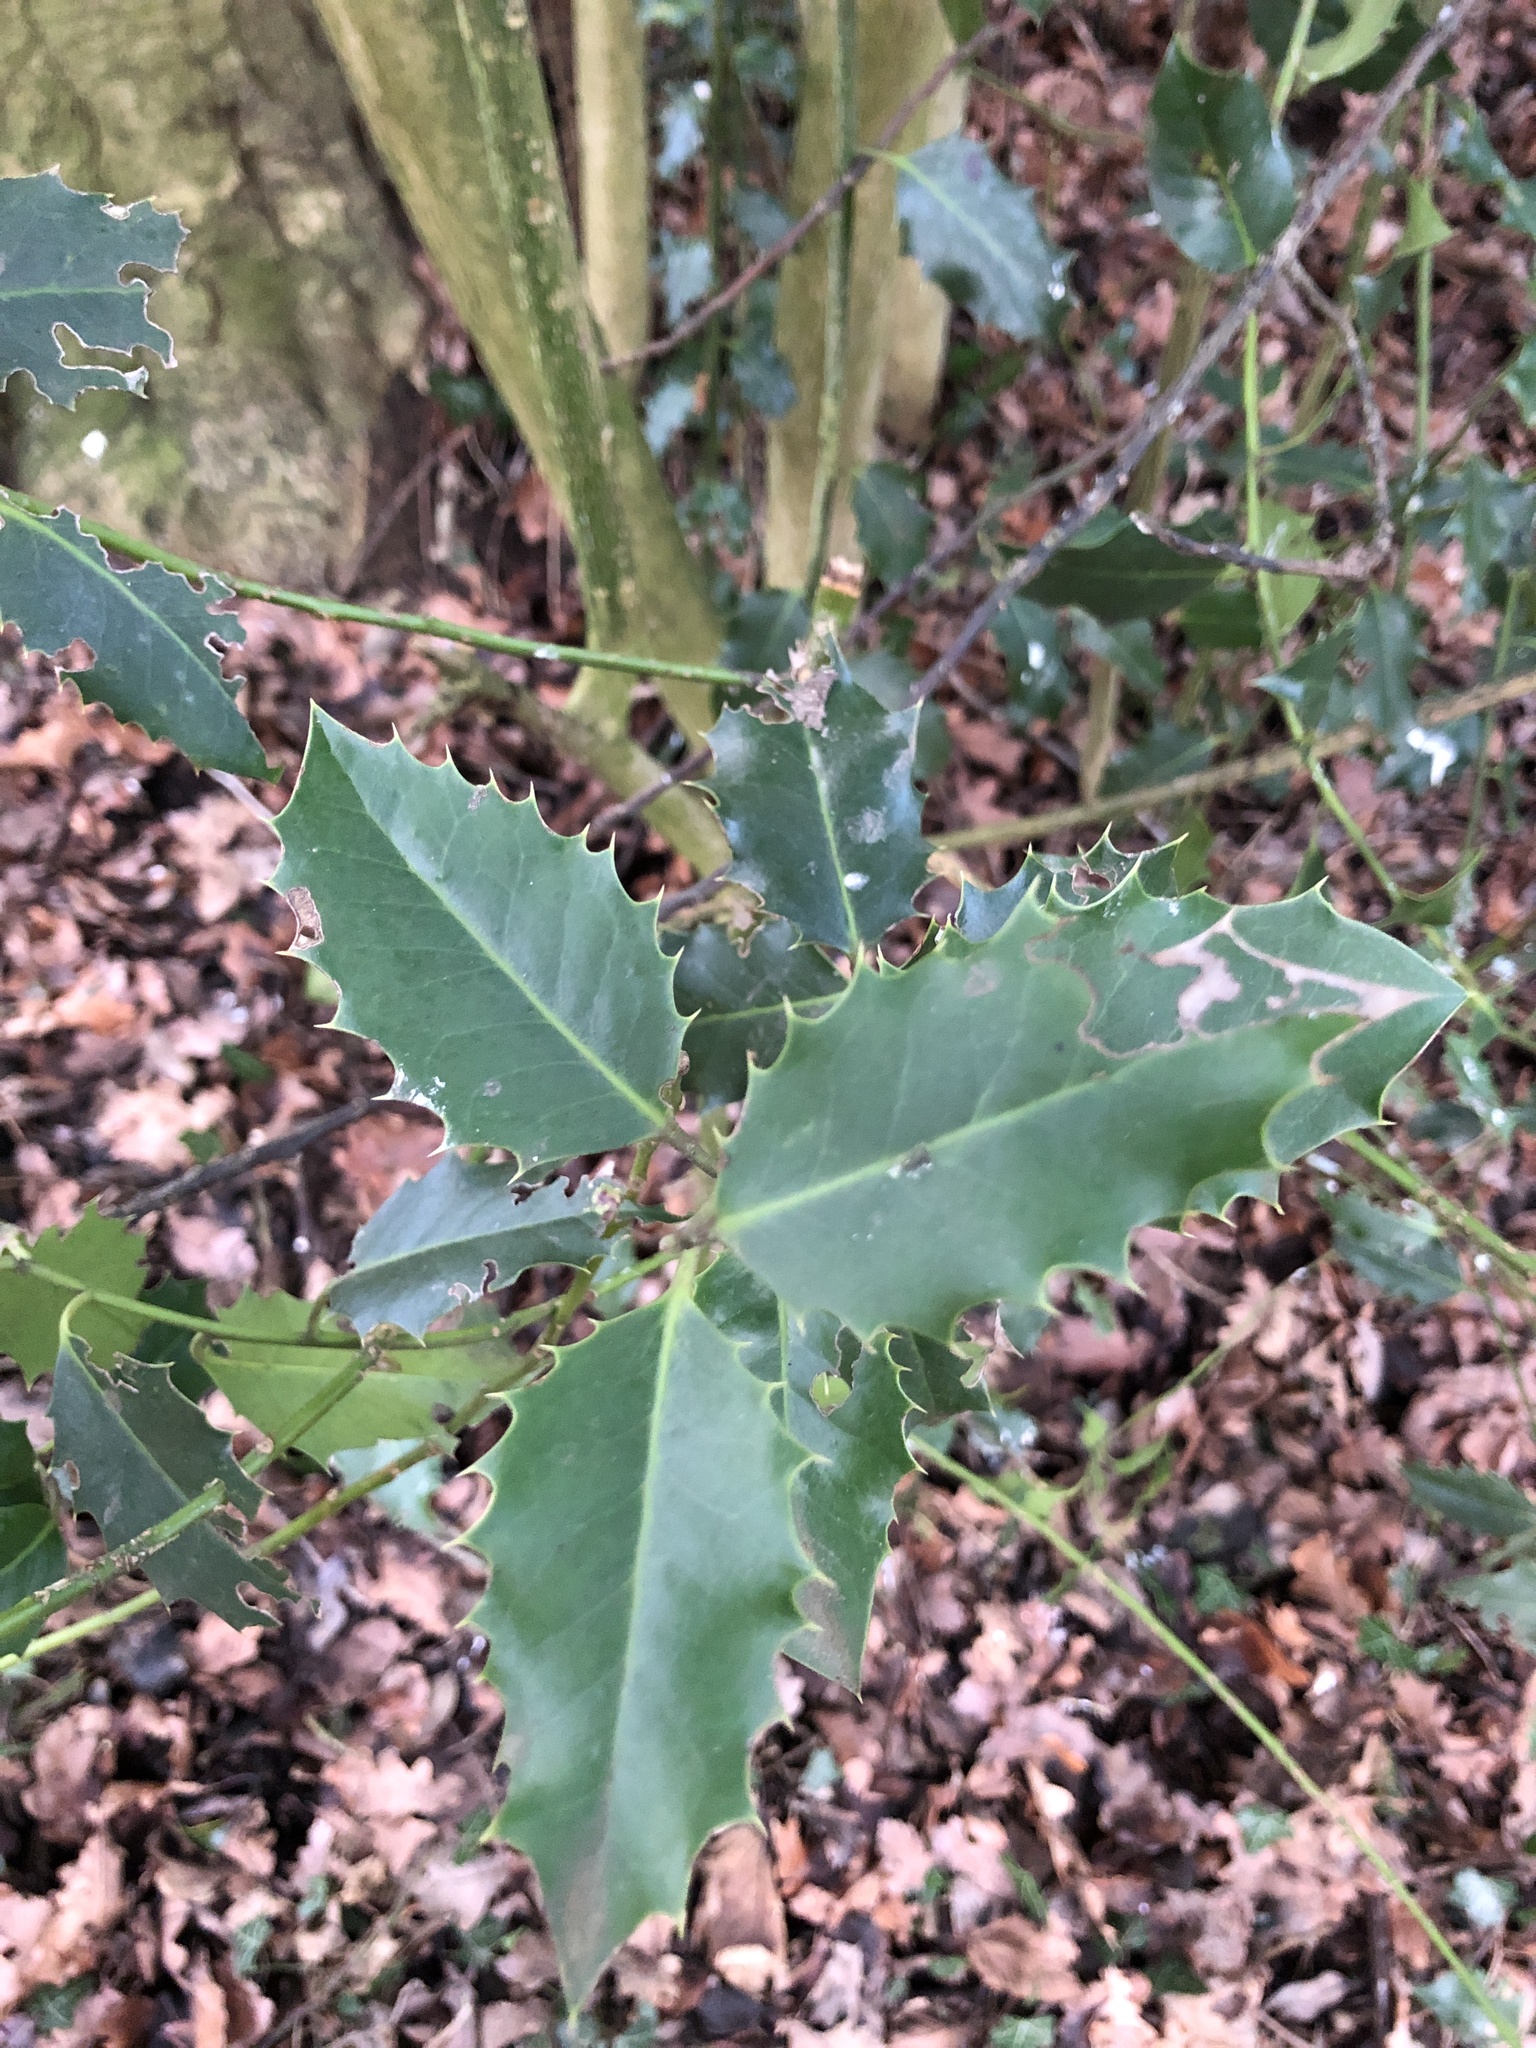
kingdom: Plantae
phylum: Tracheophyta
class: Magnoliopsida
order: Aquifoliales
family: Aquifoliaceae
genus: Ilex
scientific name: Ilex aquifolium
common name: English holly
